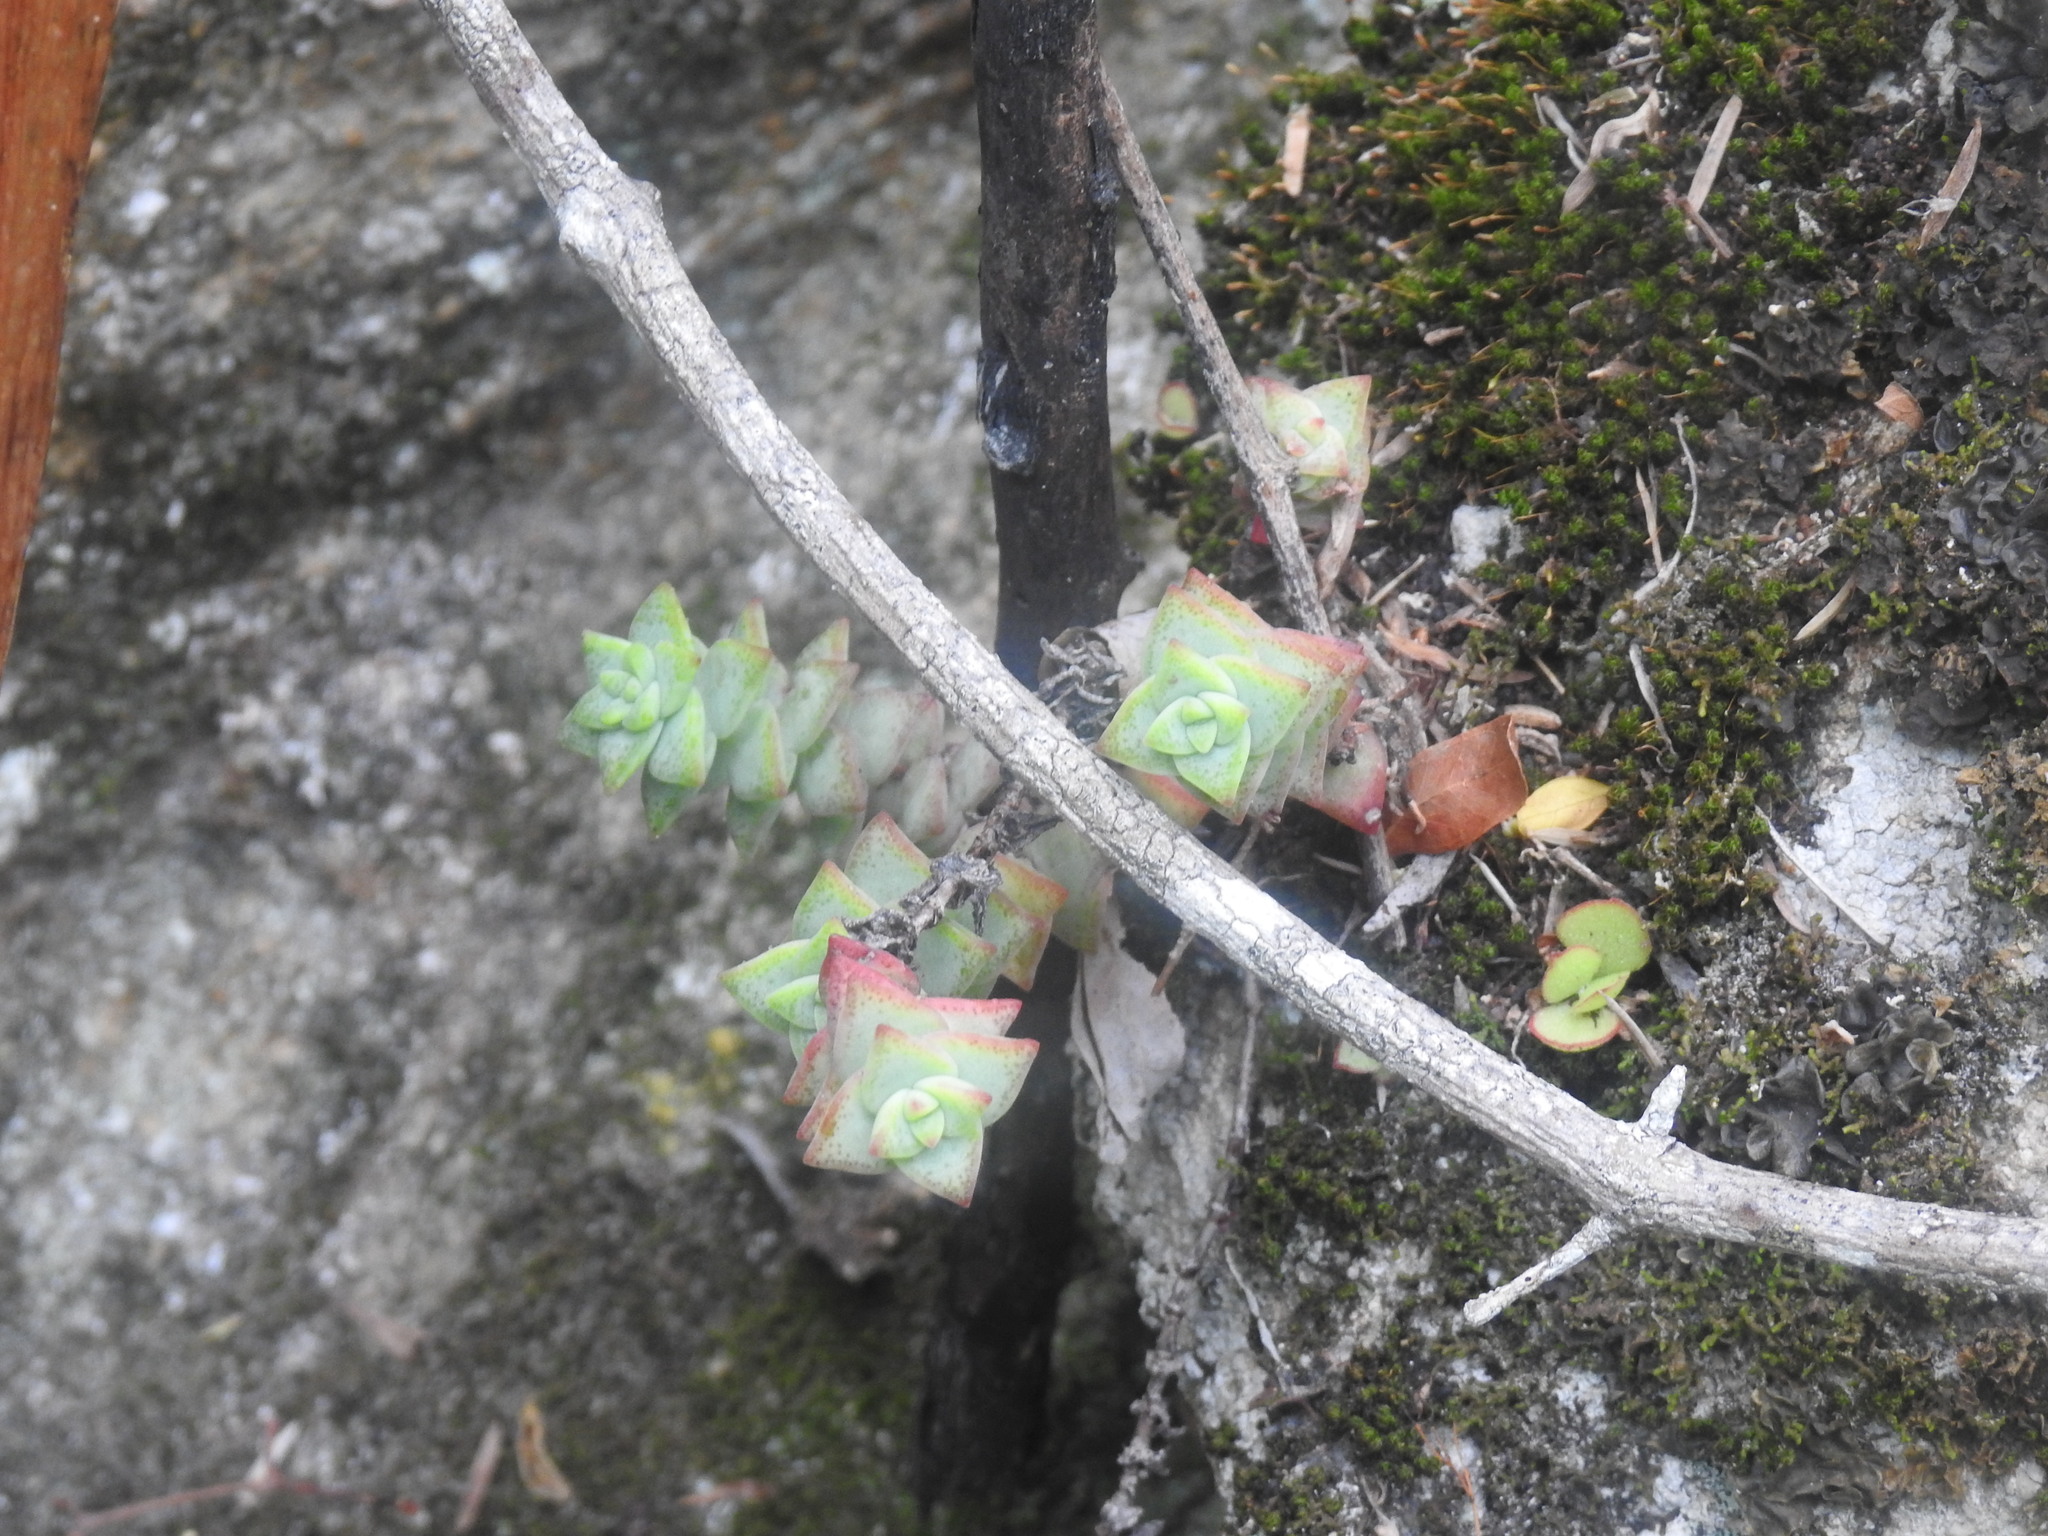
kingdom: Plantae
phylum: Tracheophyta
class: Magnoliopsida
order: Saxifragales
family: Crassulaceae
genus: Crassula
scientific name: Crassula perforata
